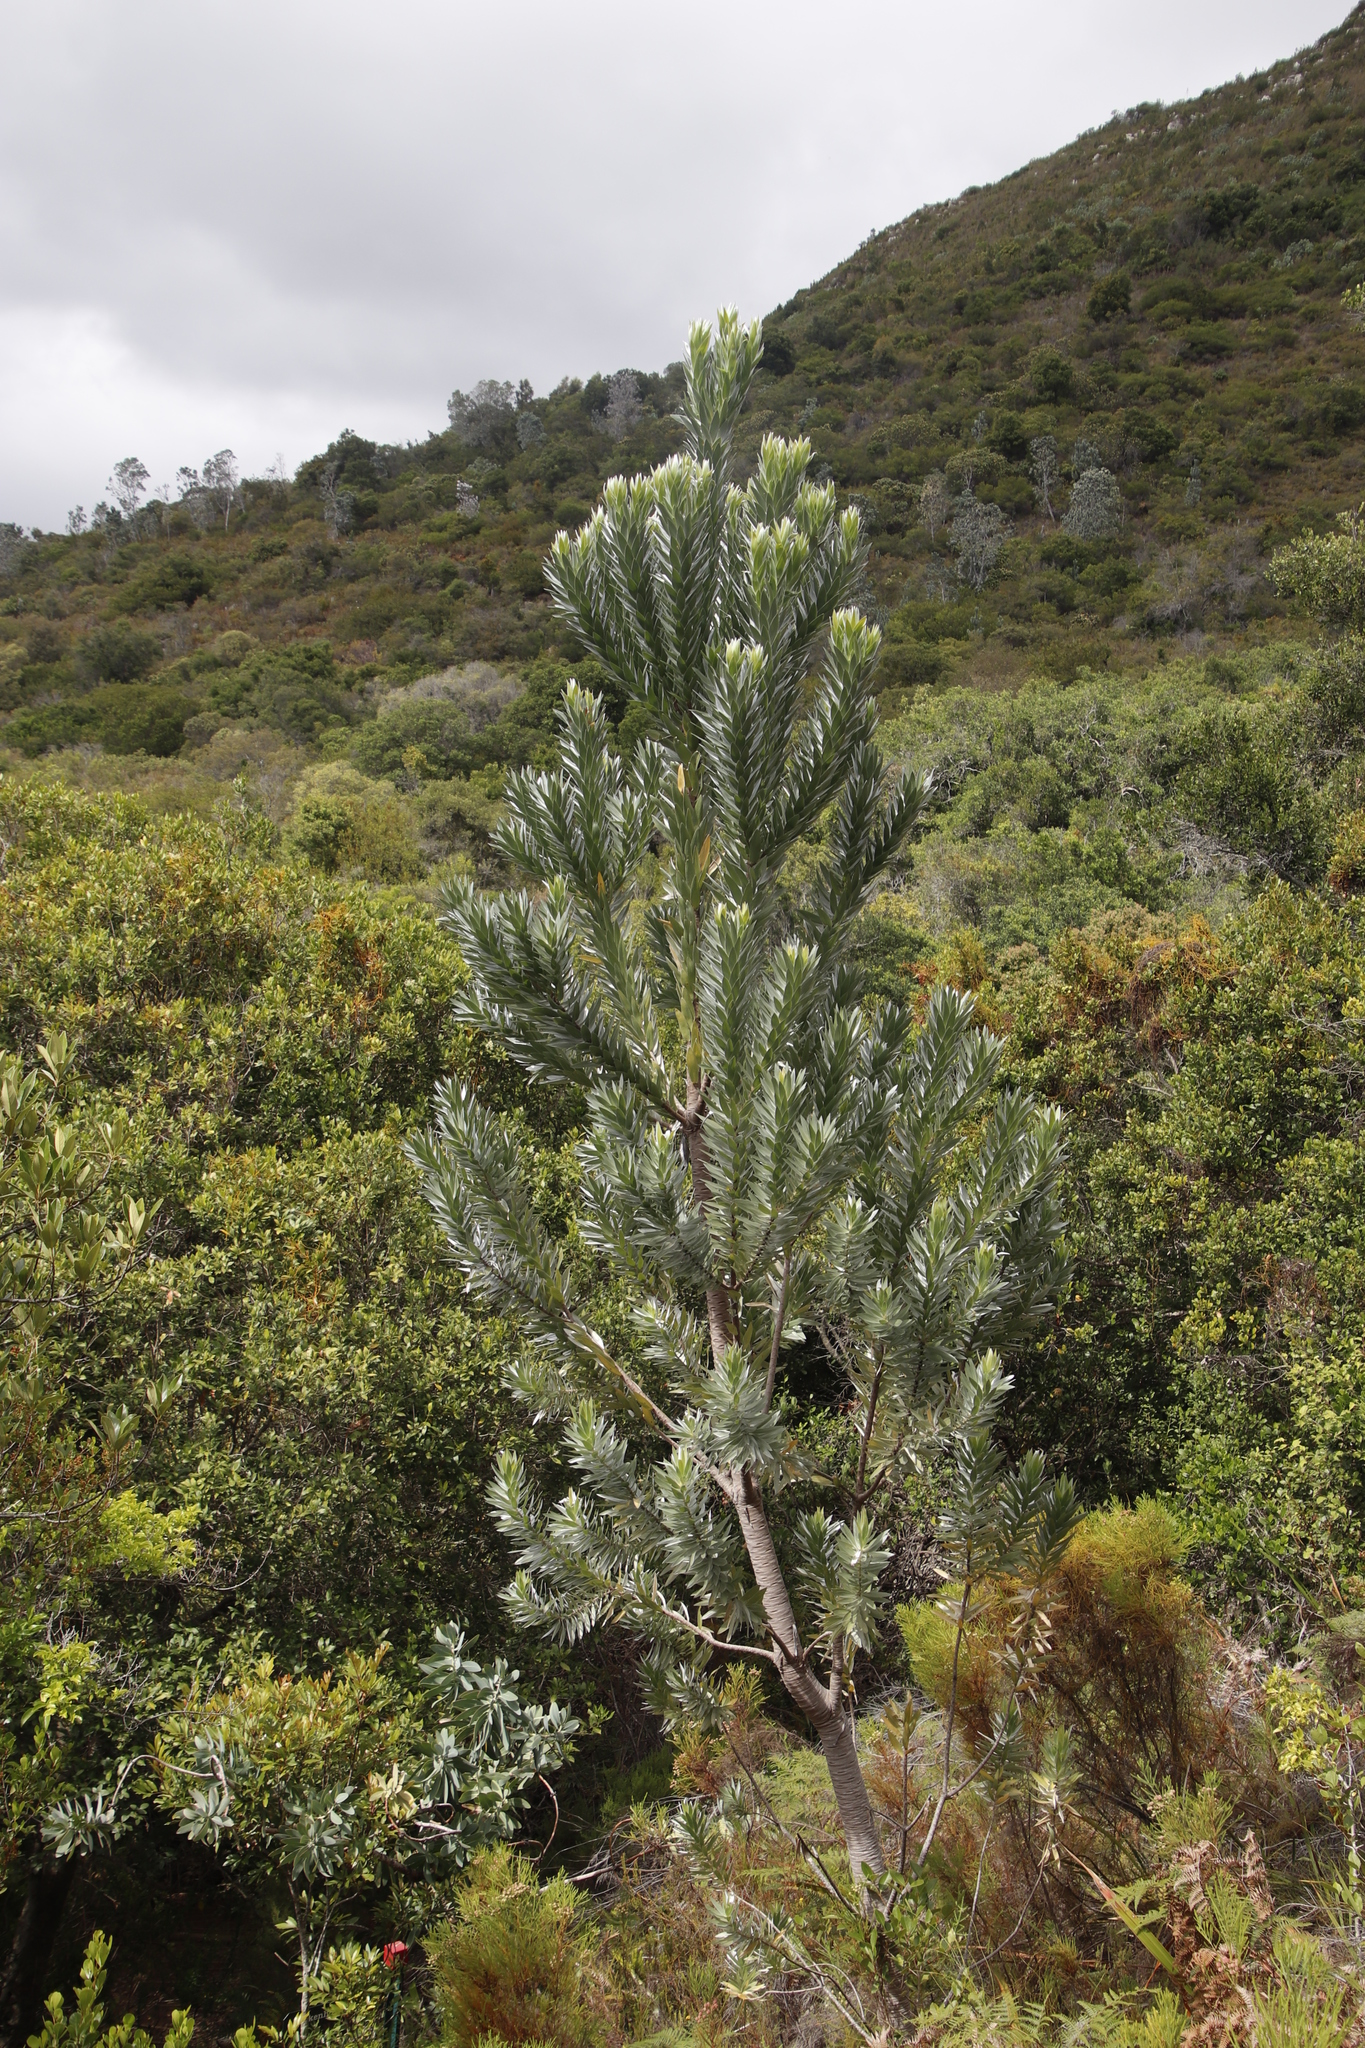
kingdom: Plantae
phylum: Tracheophyta
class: Magnoliopsida
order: Proteales
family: Proteaceae
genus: Leucadendron
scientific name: Leucadendron argenteum
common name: Cape silver tree
